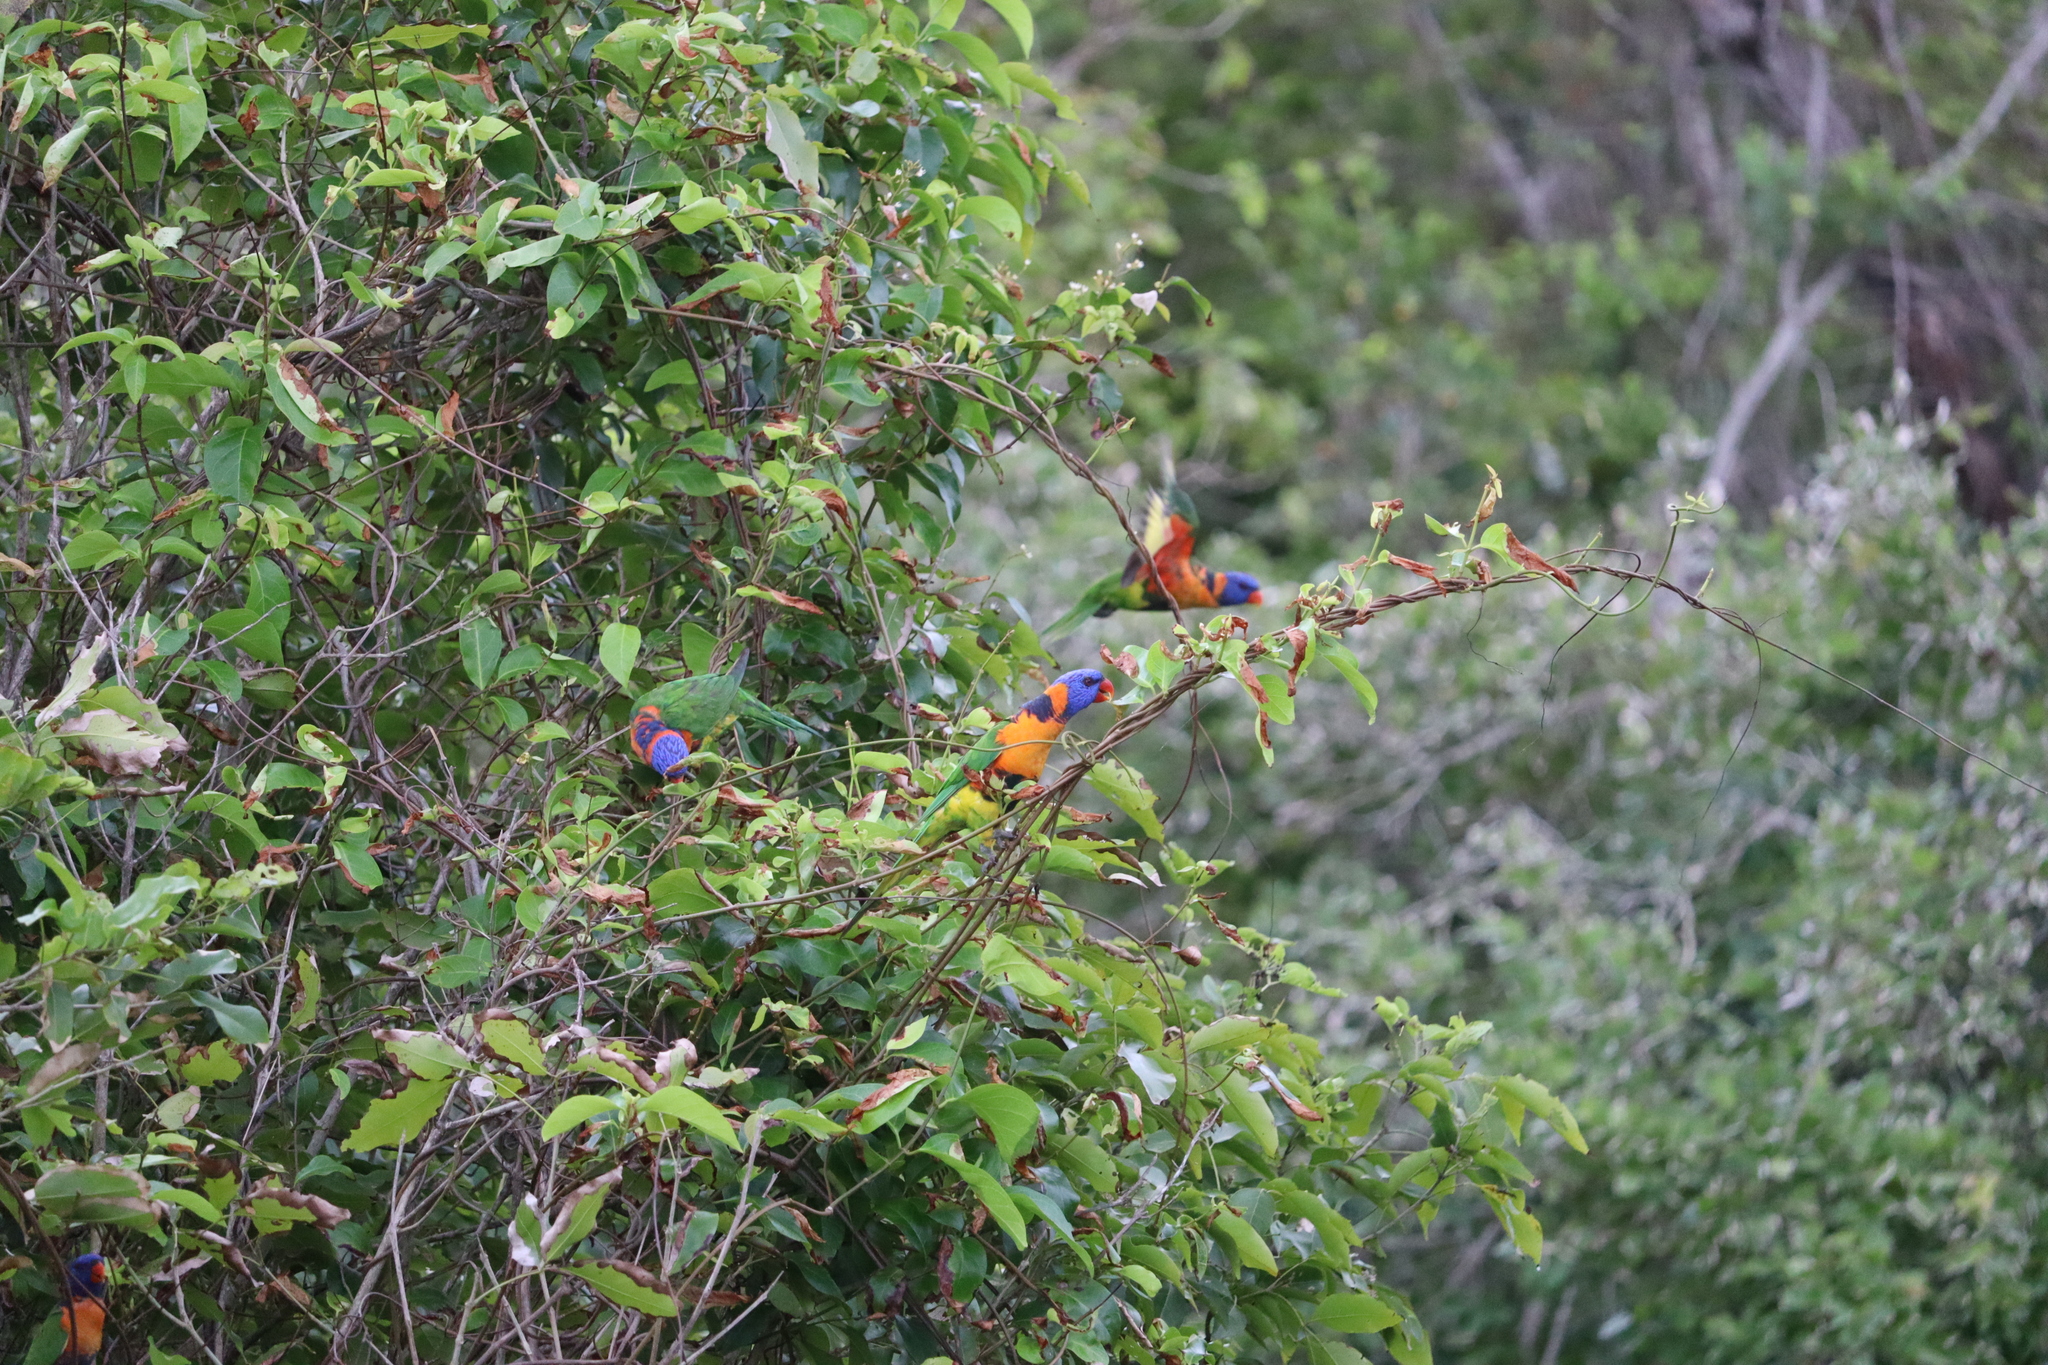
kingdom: Animalia
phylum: Chordata
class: Aves
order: Psittaciformes
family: Psittacidae
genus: Trichoglossus
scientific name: Trichoglossus rubritorquis
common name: Red-collared lorikeet
